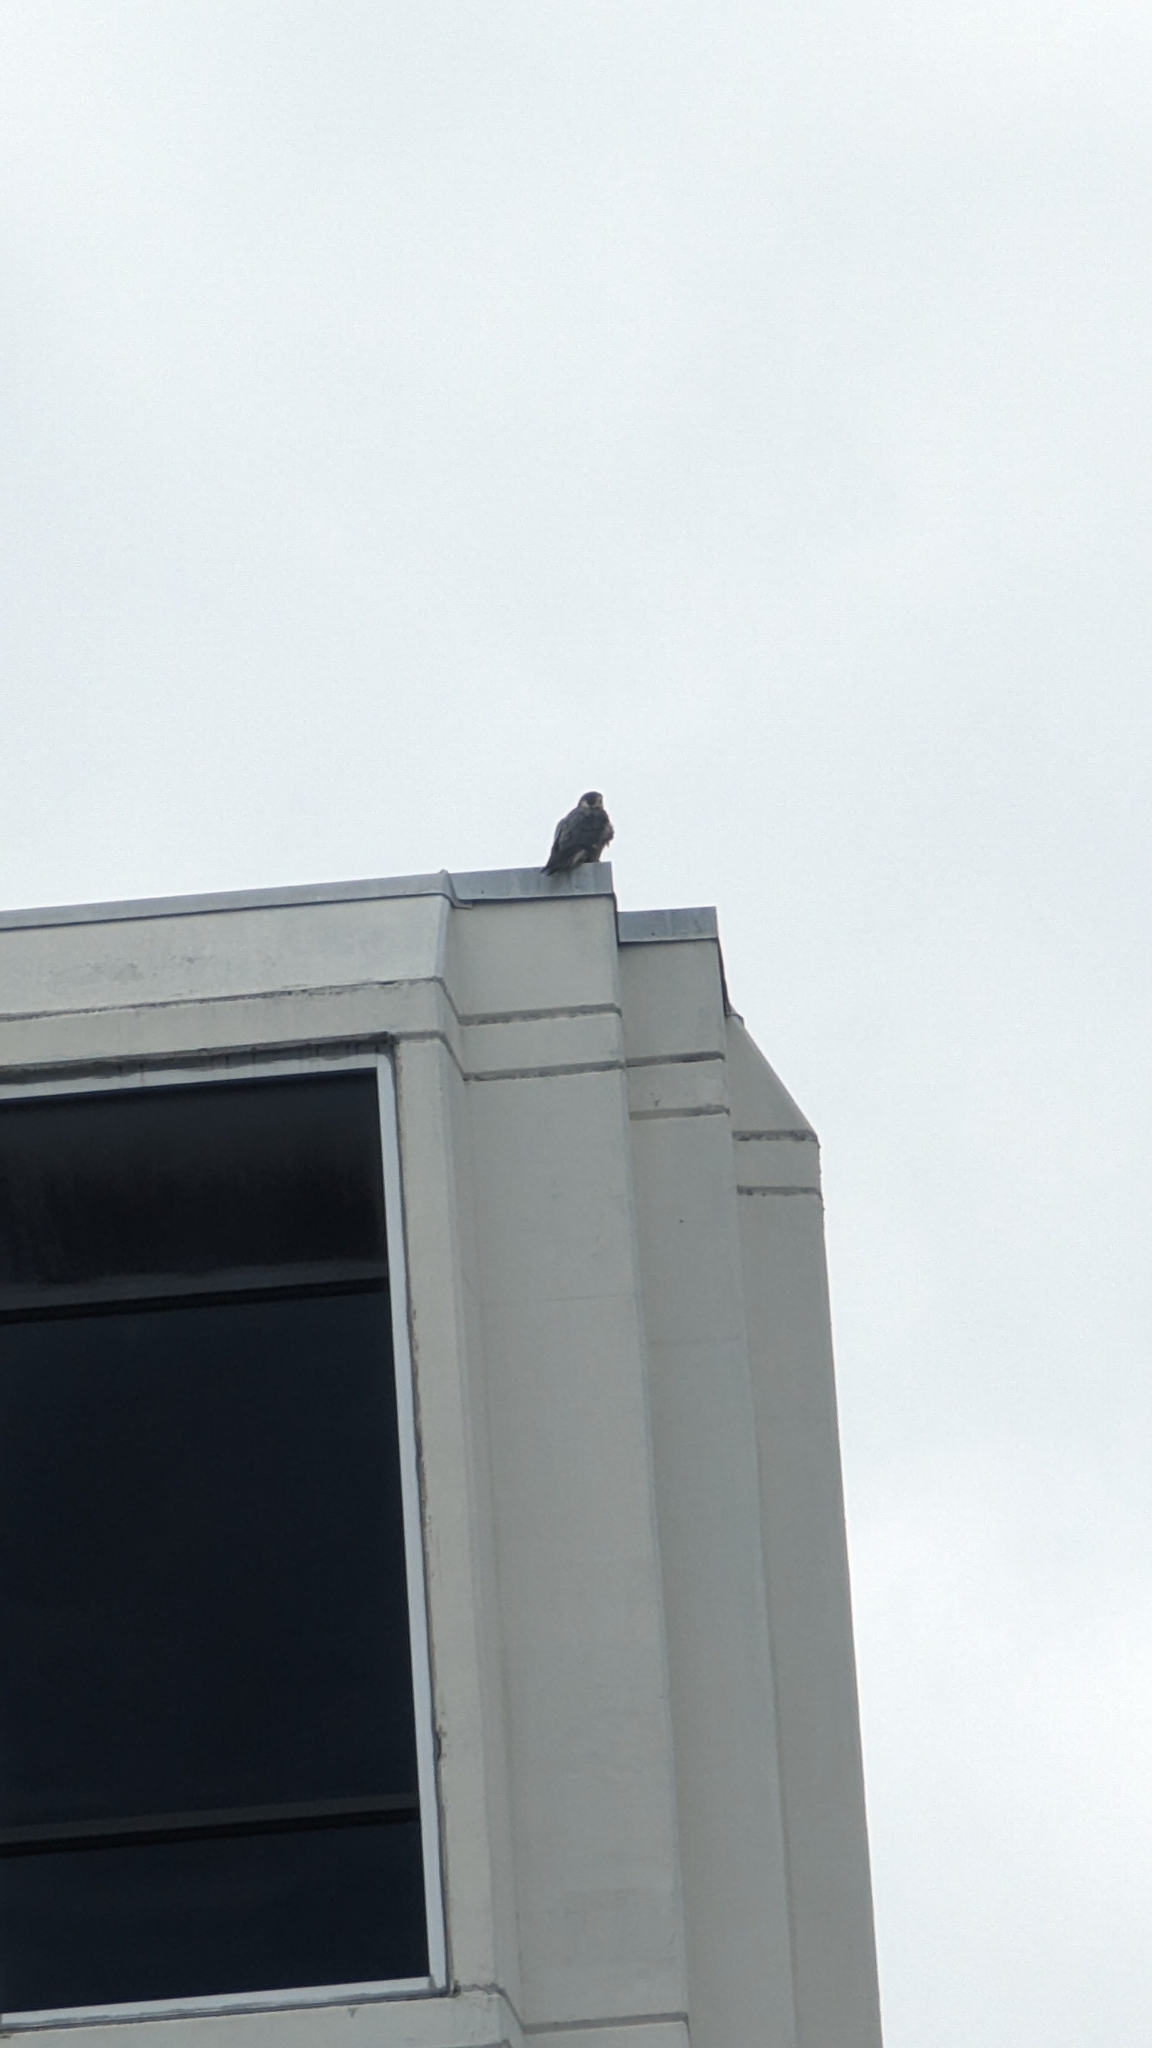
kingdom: Animalia
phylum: Chordata
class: Aves
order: Falconiformes
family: Falconidae
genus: Falco
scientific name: Falco peregrinus
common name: Peregrine falcon
